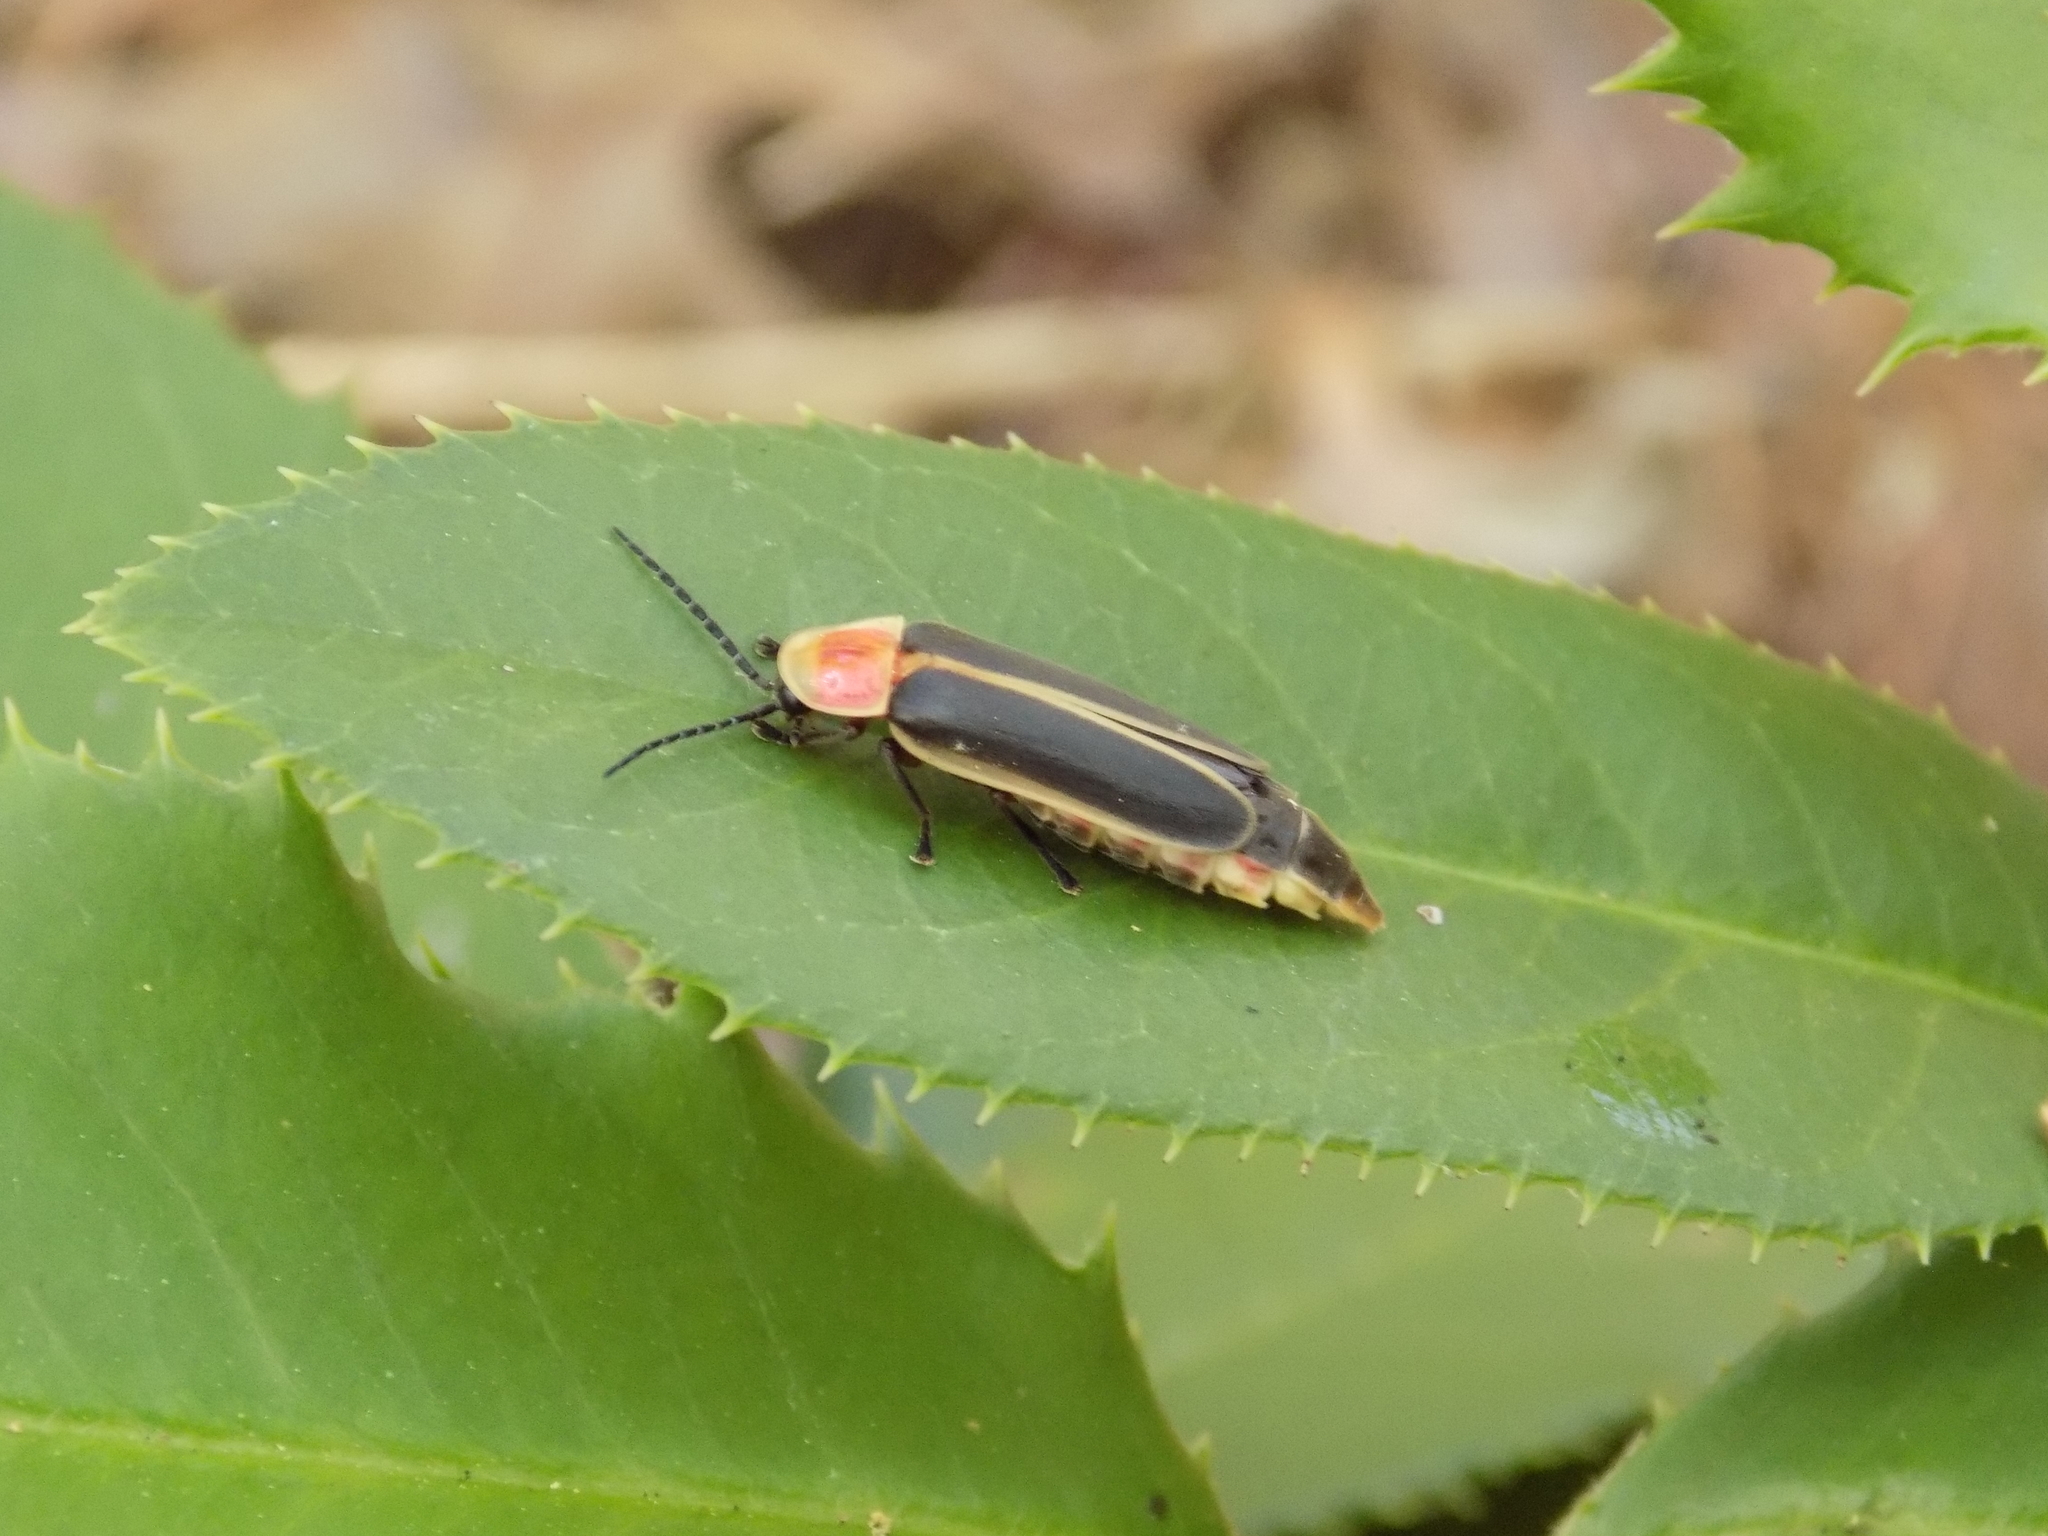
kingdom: Animalia
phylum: Arthropoda
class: Insecta
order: Coleoptera
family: Lampyridae
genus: Photinus
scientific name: Photinus pyralis
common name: Big dipper firefly
